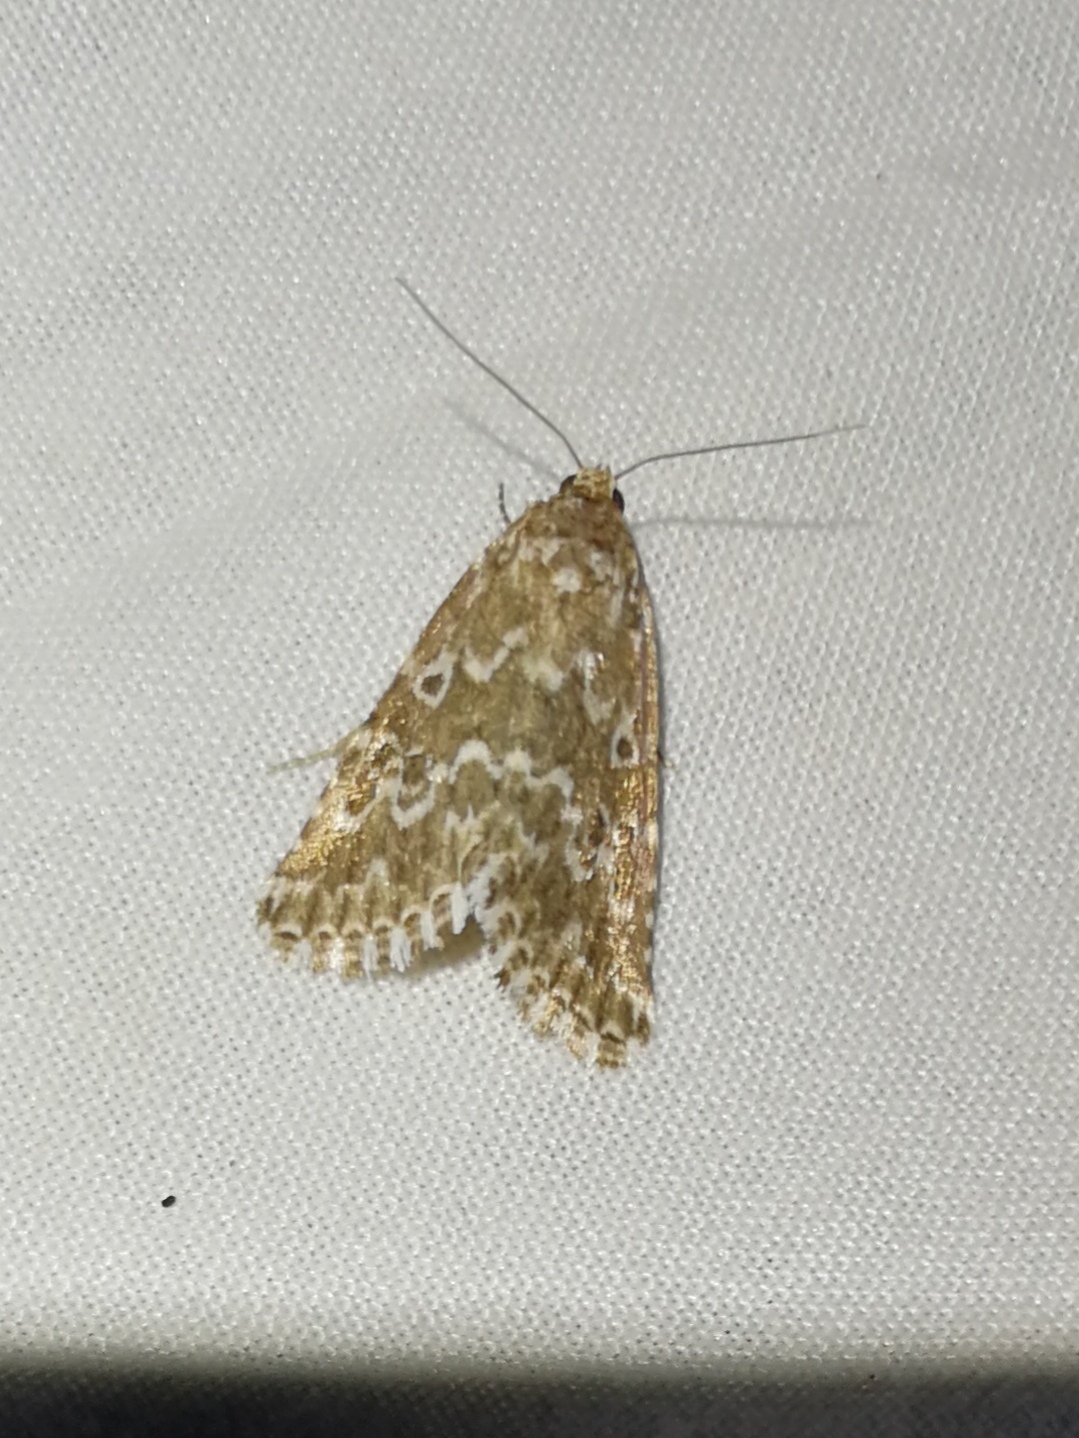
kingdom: Animalia
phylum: Arthropoda
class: Insecta
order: Lepidoptera
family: Noctuidae
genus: Alvaradoia
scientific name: Alvaradoia disjecta
